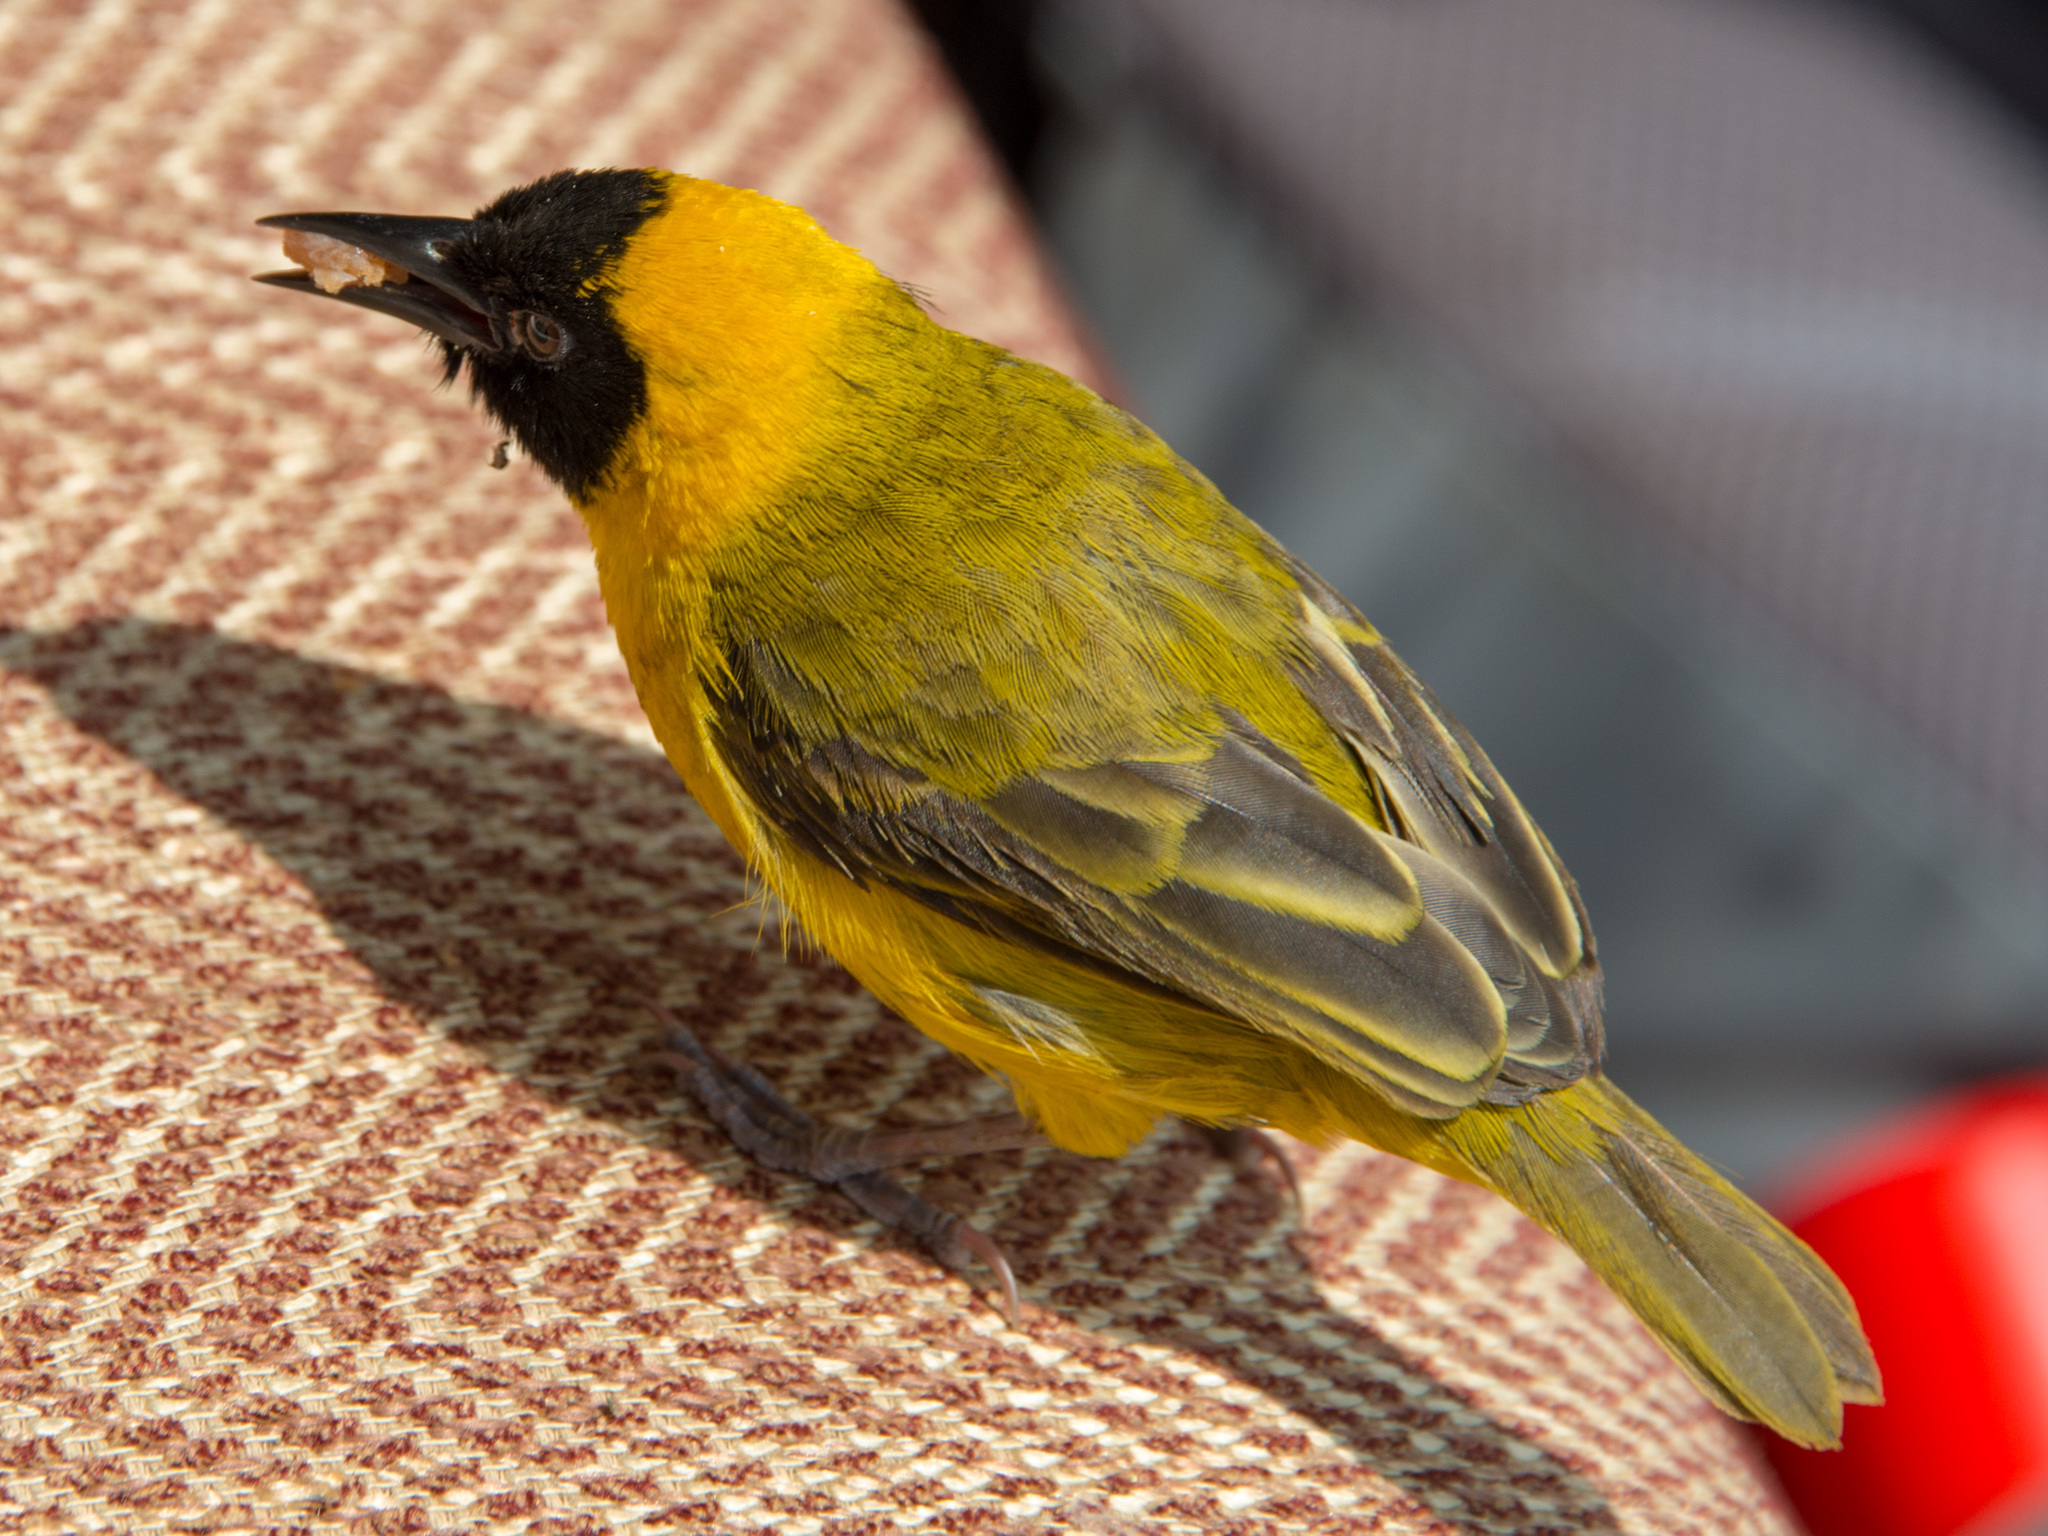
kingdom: Animalia
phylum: Chordata
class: Aves
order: Passeriformes
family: Ploceidae
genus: Ploceus
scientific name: Ploceus pelzelni
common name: Slender-billed weaver
